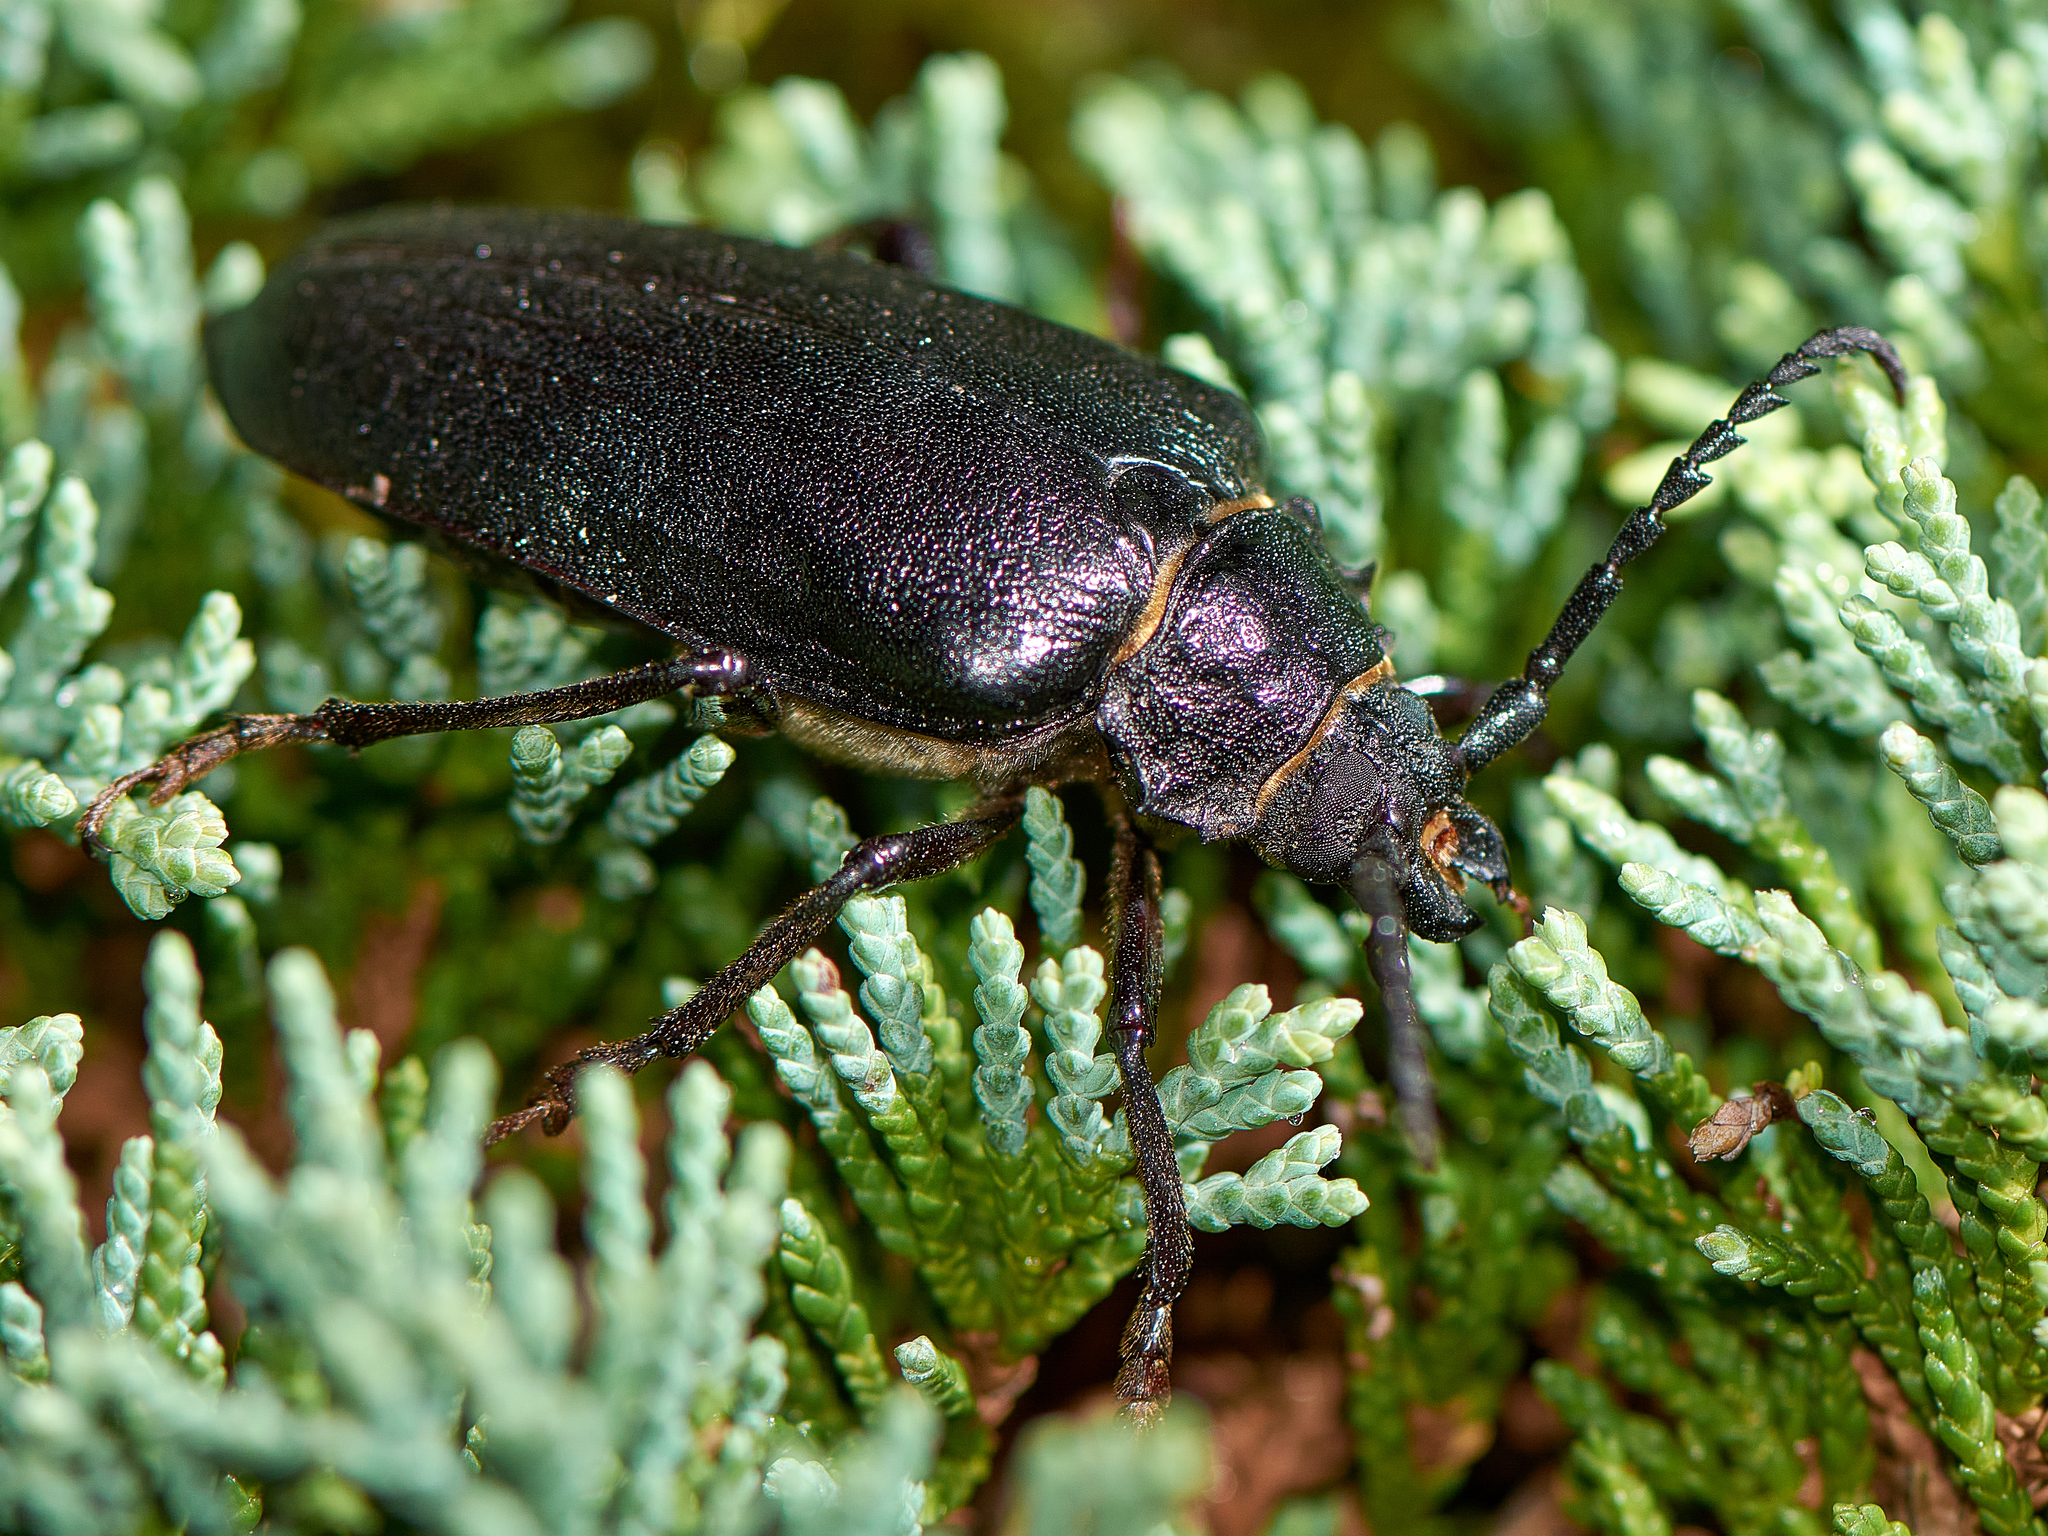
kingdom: Animalia
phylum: Arthropoda
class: Insecta
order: Coleoptera
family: Cerambycidae
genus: Prionus
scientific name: Prionus coriarius
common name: Tanner beetle
